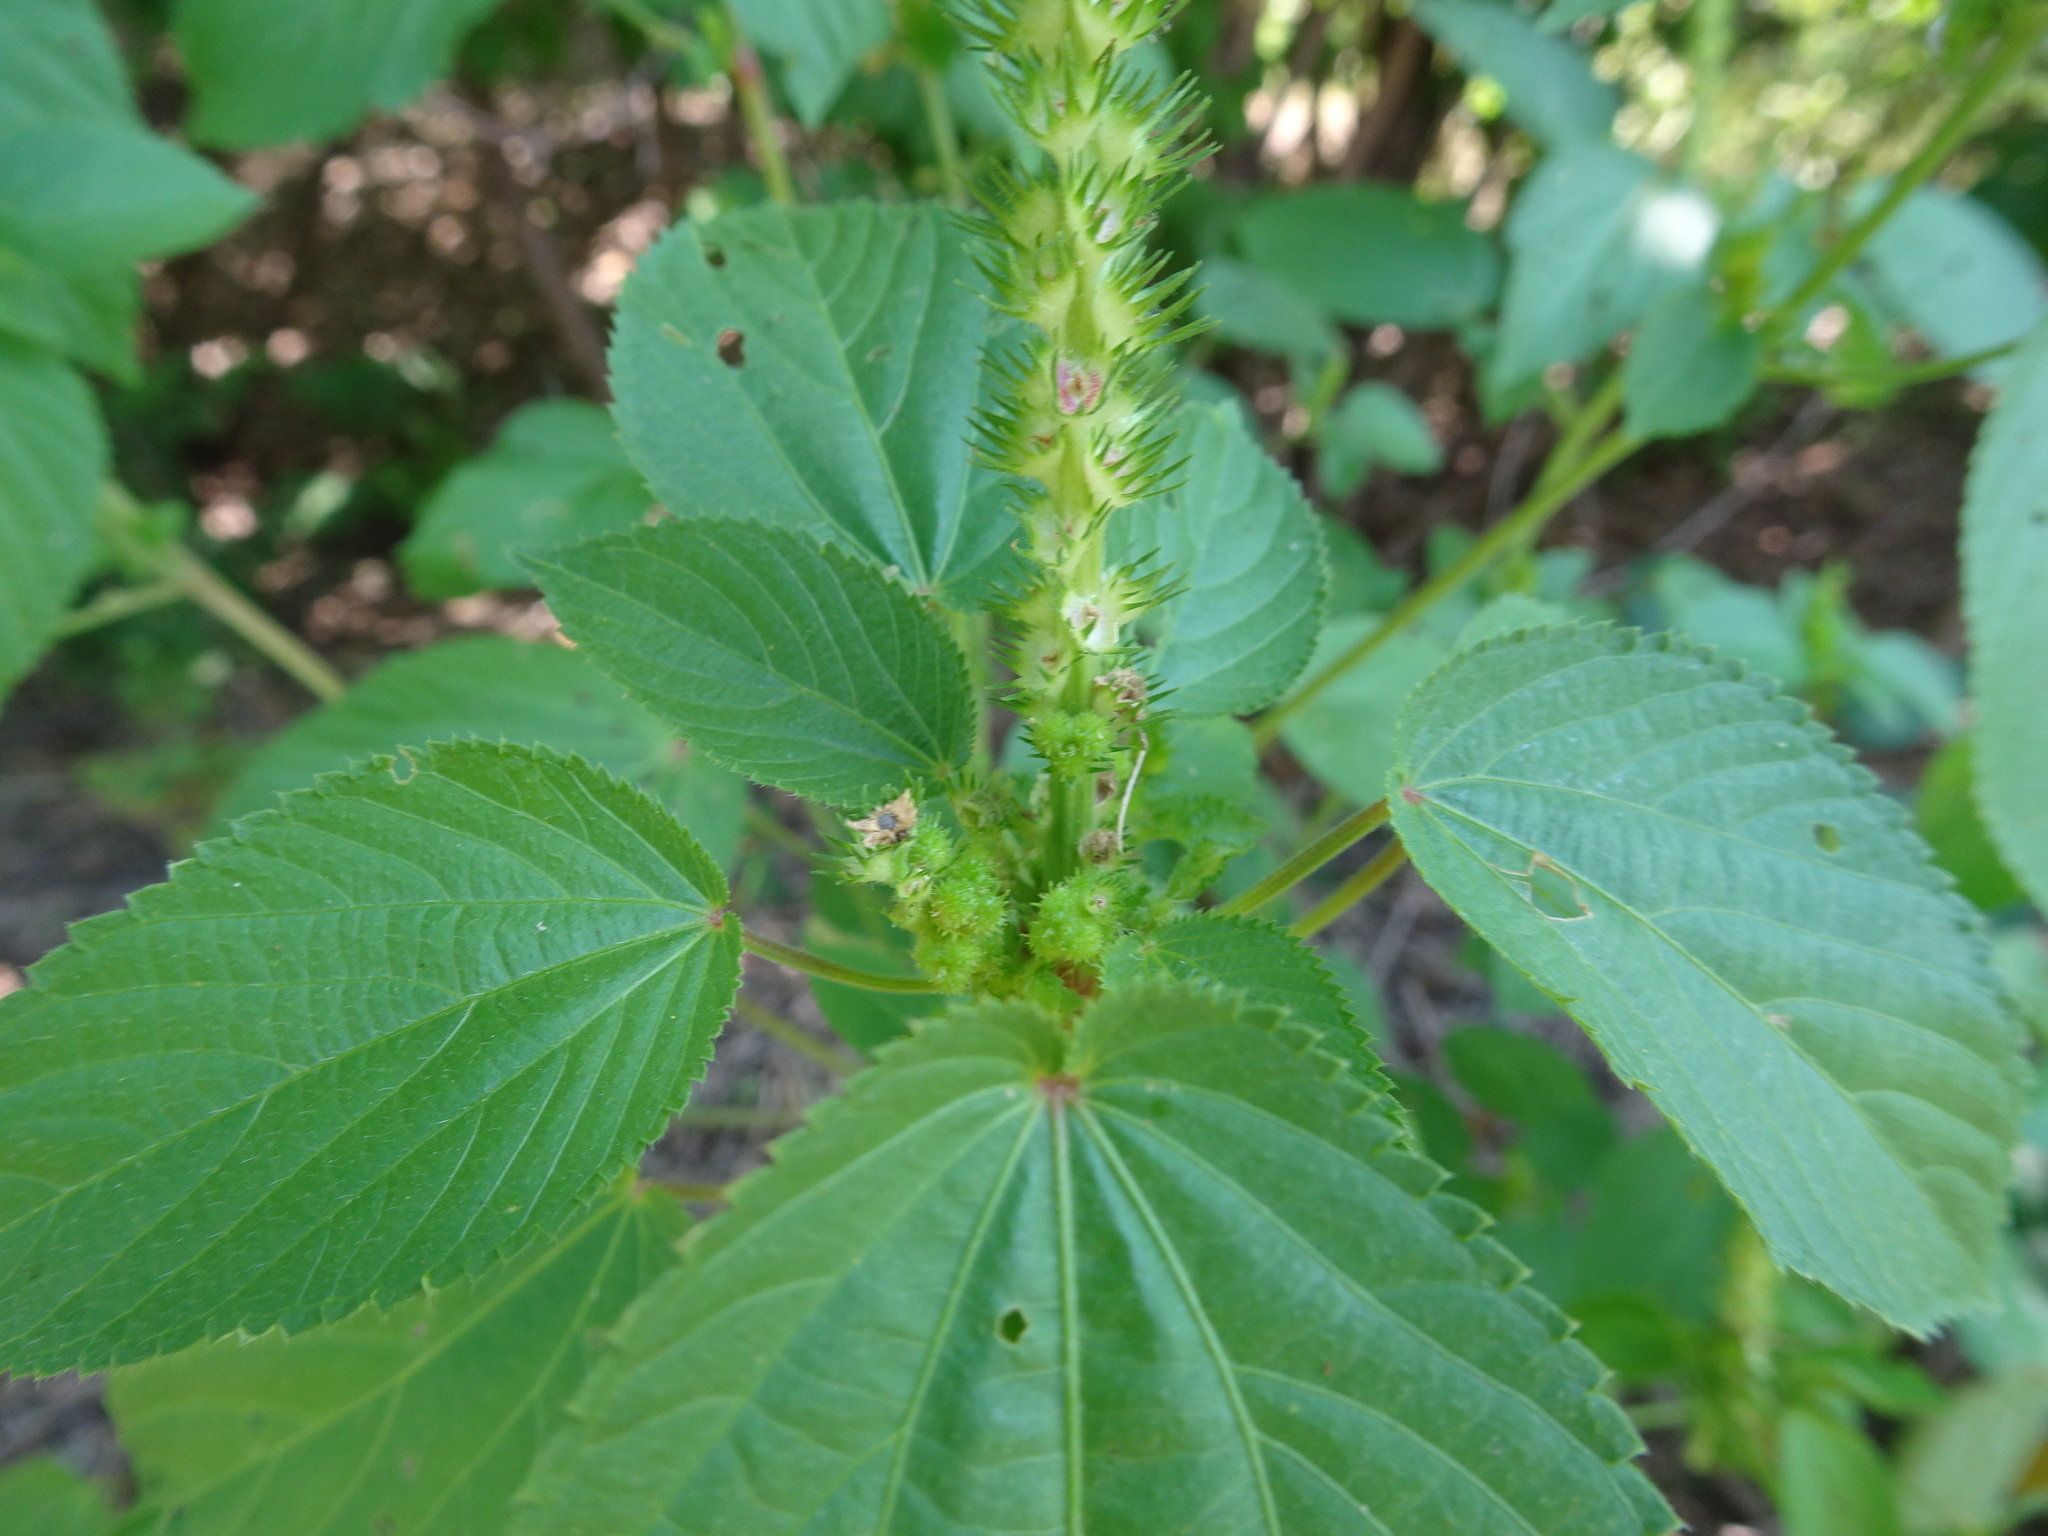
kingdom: Plantae
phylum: Tracheophyta
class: Magnoliopsida
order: Malpighiales
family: Euphorbiaceae
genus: Acalypha
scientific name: Acalypha ostryifolia
